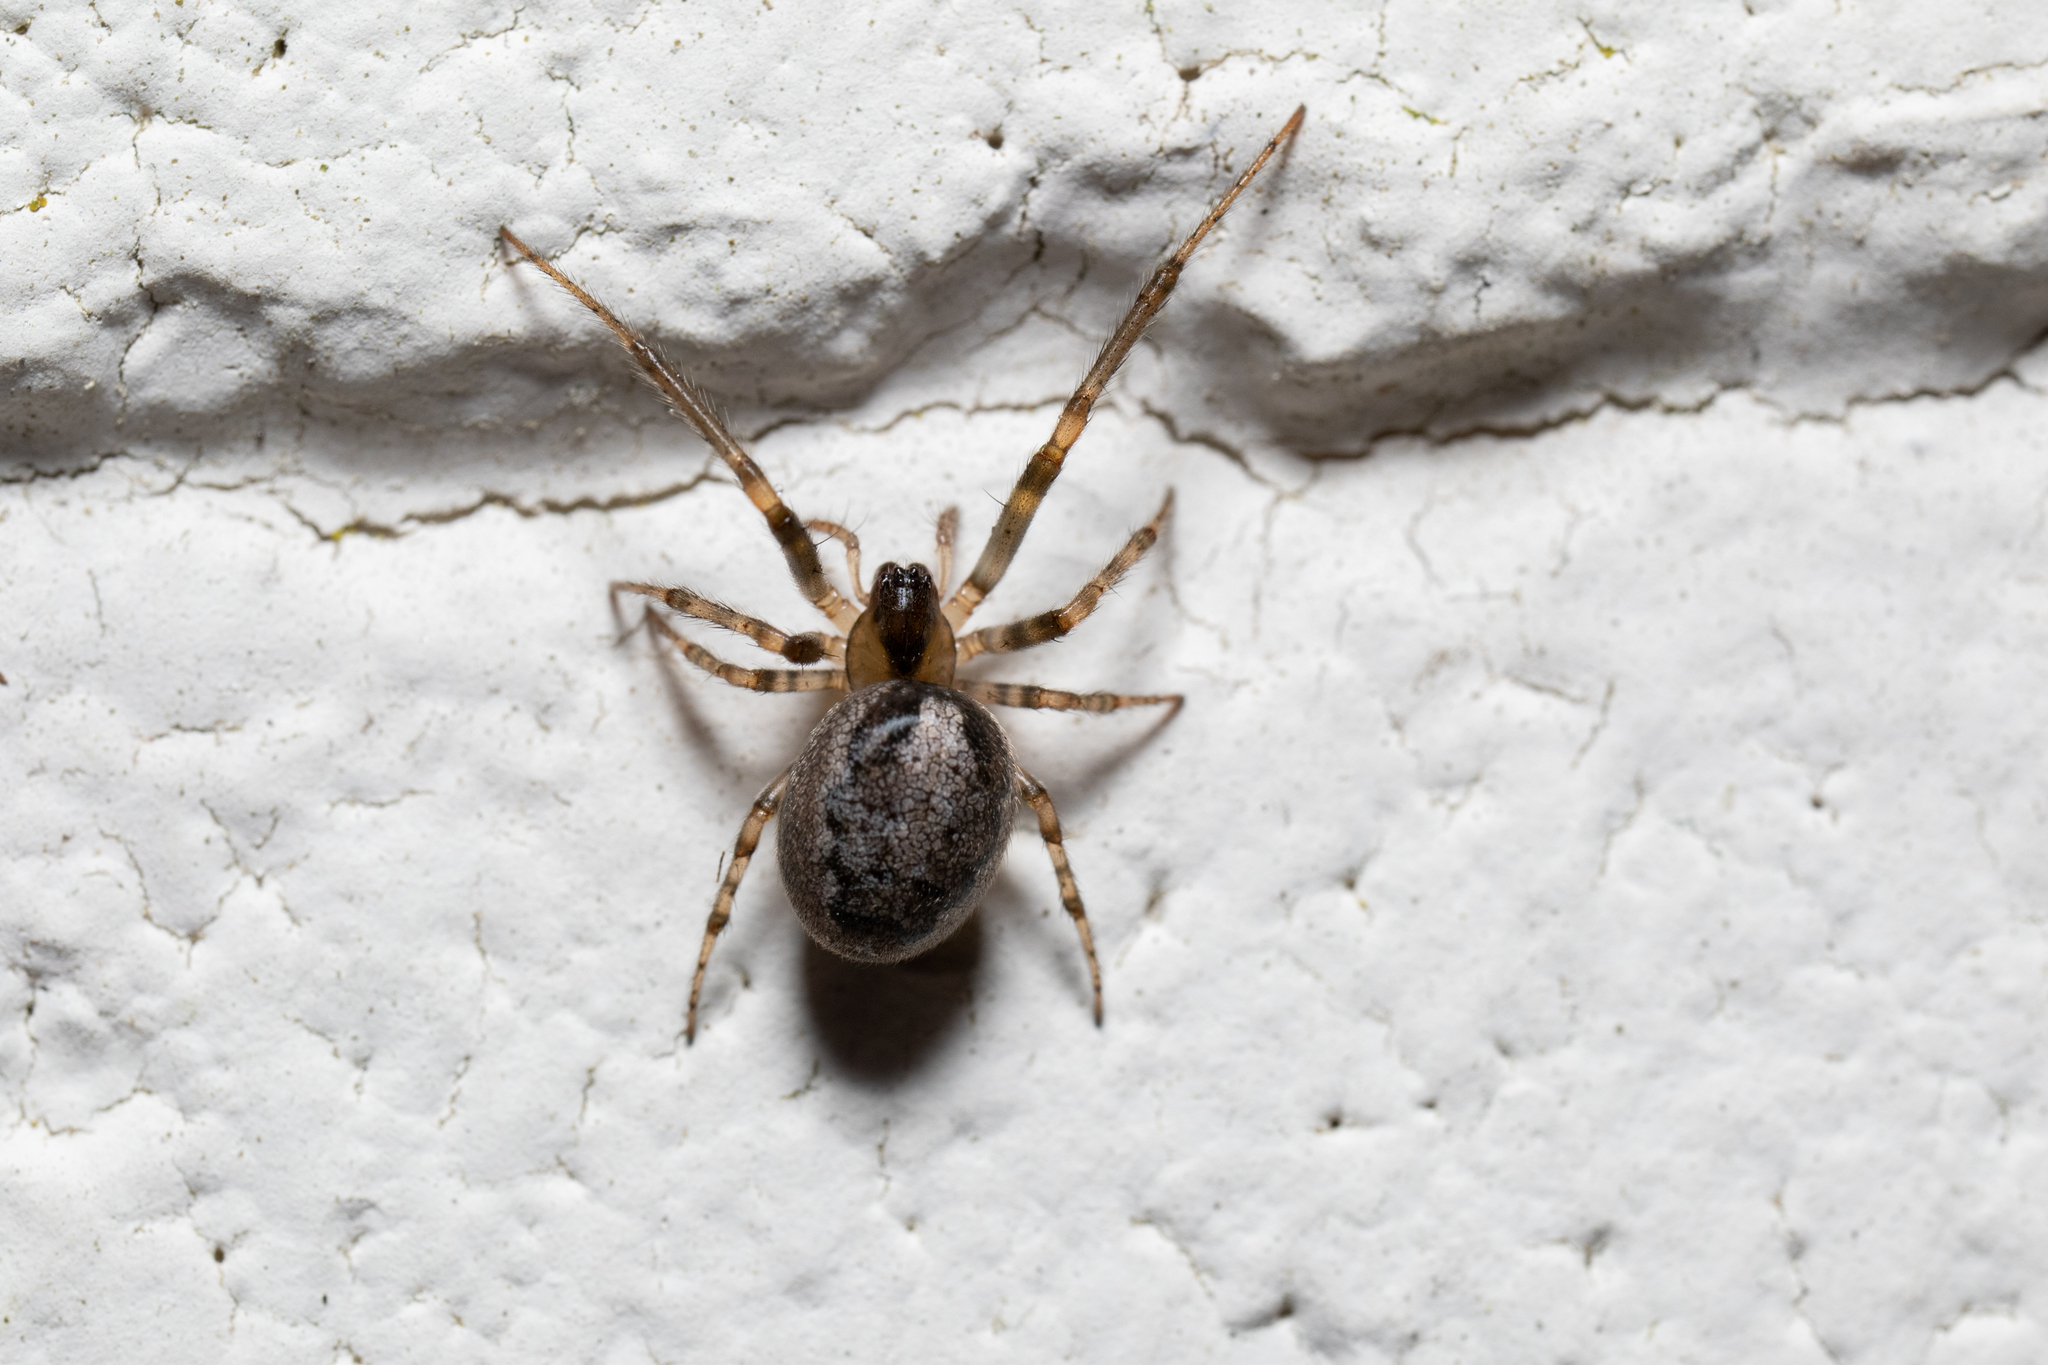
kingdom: Animalia
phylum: Arthropoda
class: Arachnida
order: Araneae
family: Araneidae
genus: Zygiella
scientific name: Zygiella x-notata
